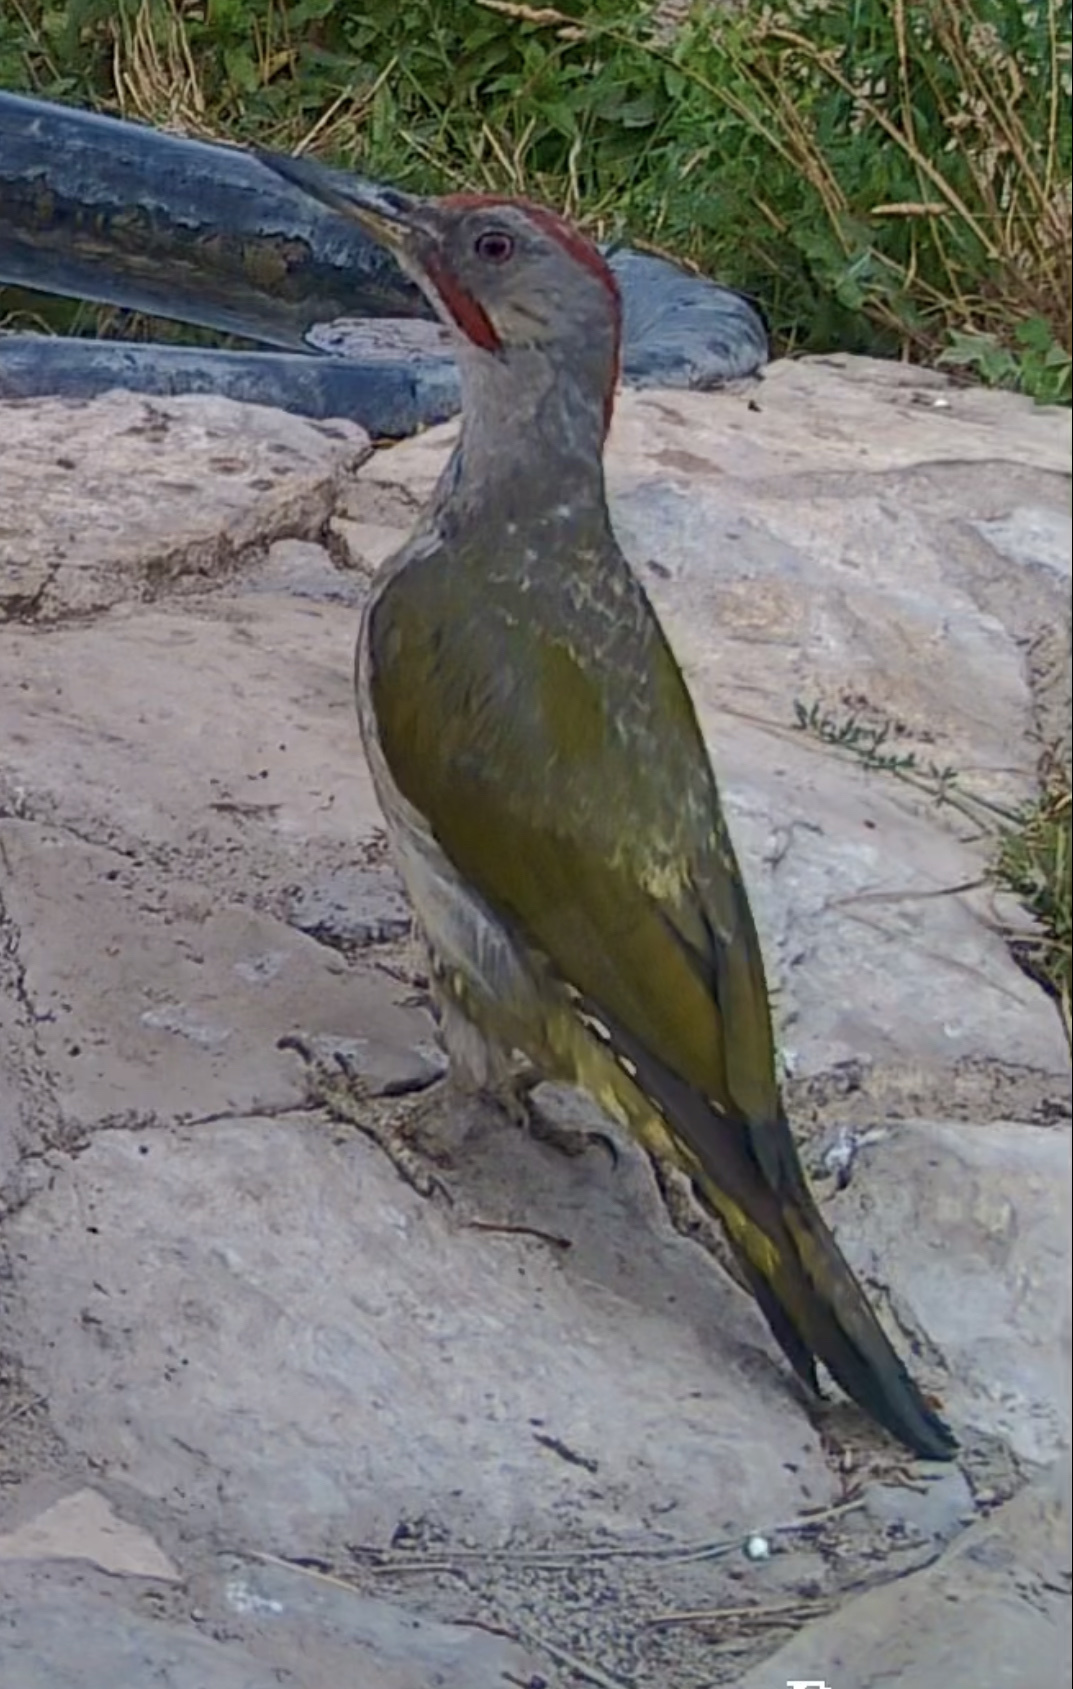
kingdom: Animalia
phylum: Chordata
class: Aves
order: Piciformes
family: Picidae
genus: Picus
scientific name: Picus sharpei
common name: Iberian green woodpecker
